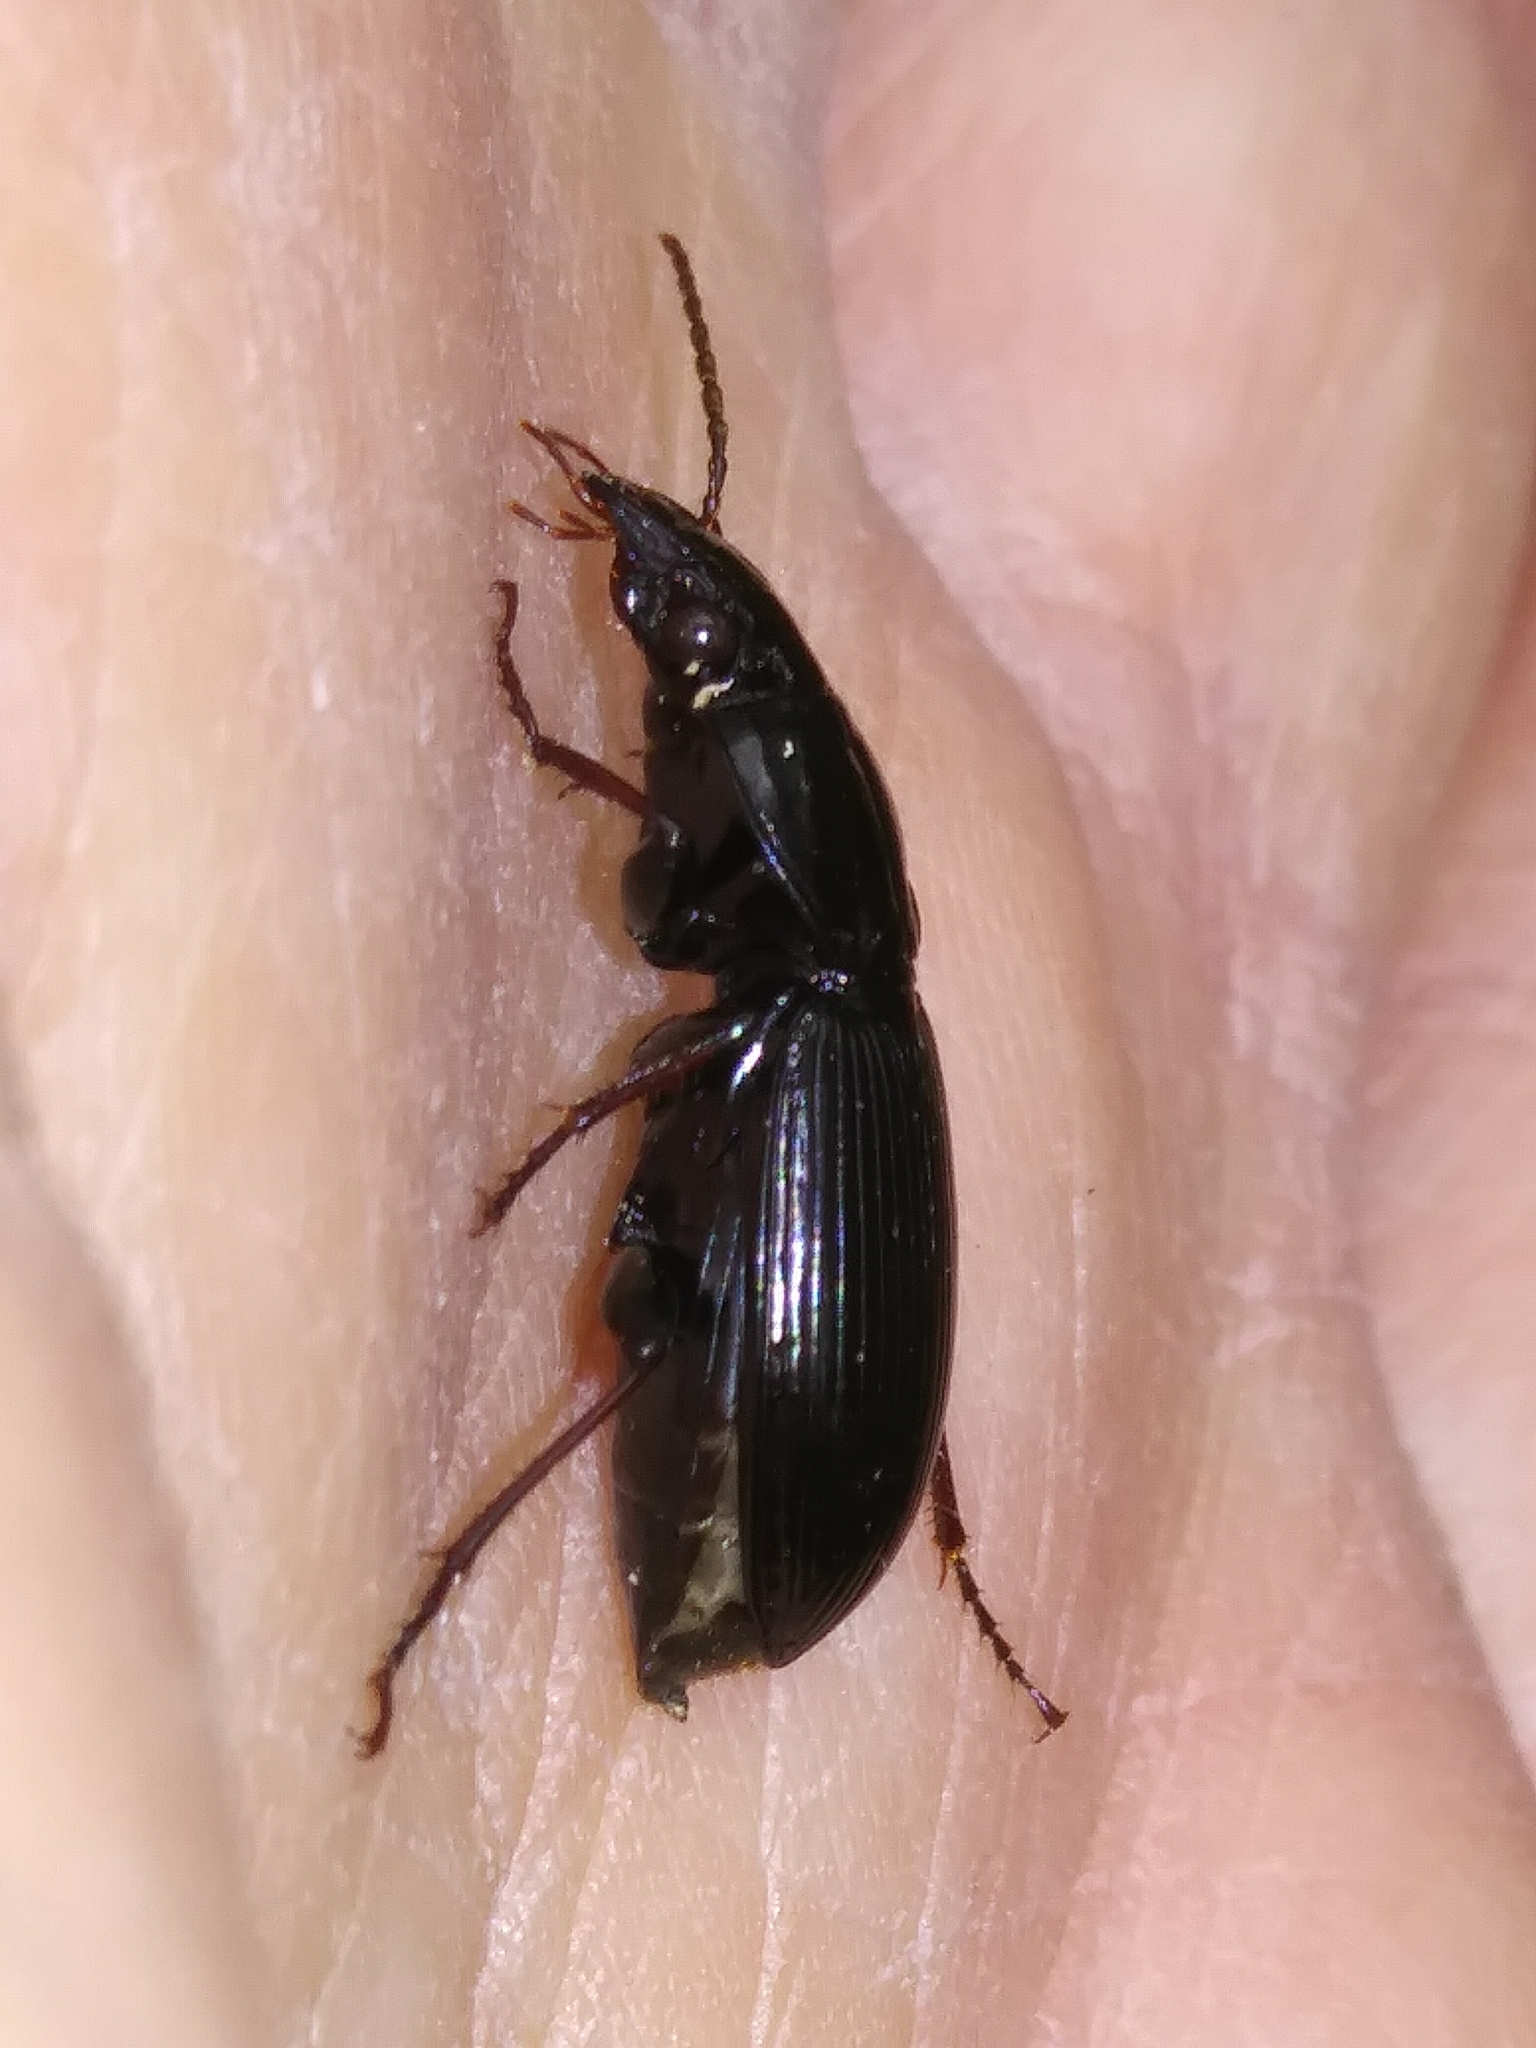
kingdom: Animalia
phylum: Arthropoda
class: Insecta
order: Coleoptera
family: Carabidae
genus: Pterostichus
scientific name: Pterostichus stygicus
